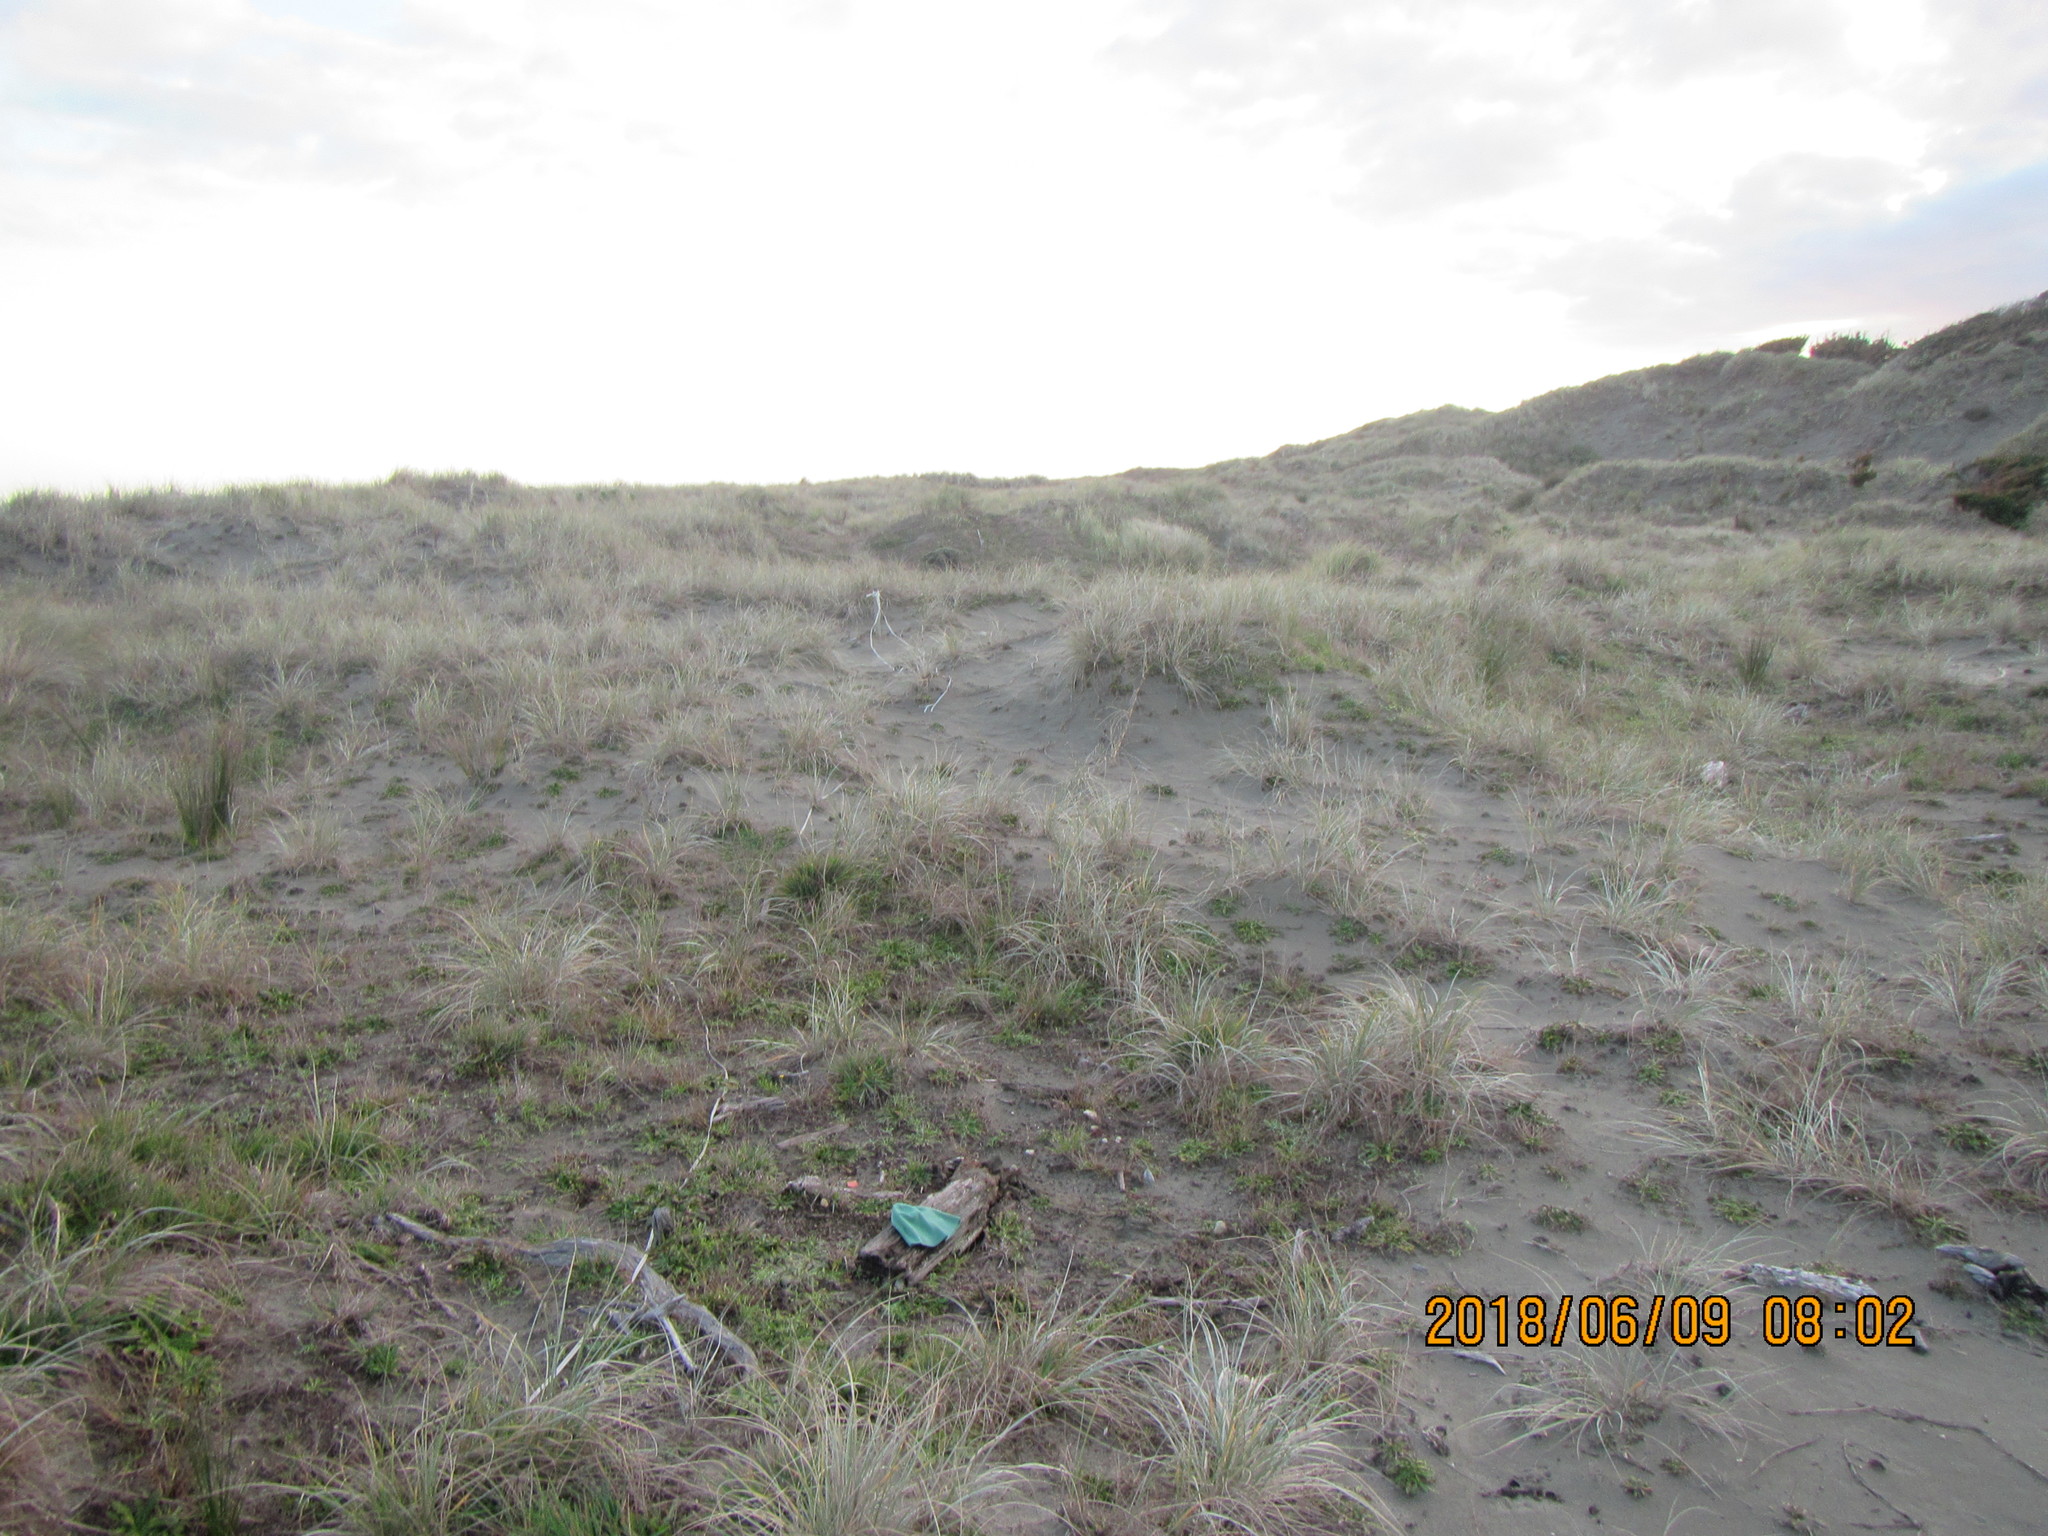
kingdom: Animalia
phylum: Arthropoda
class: Arachnida
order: Araneae
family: Theridiidae
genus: Steatoda
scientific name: Steatoda capensis
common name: Cobweb weaver
